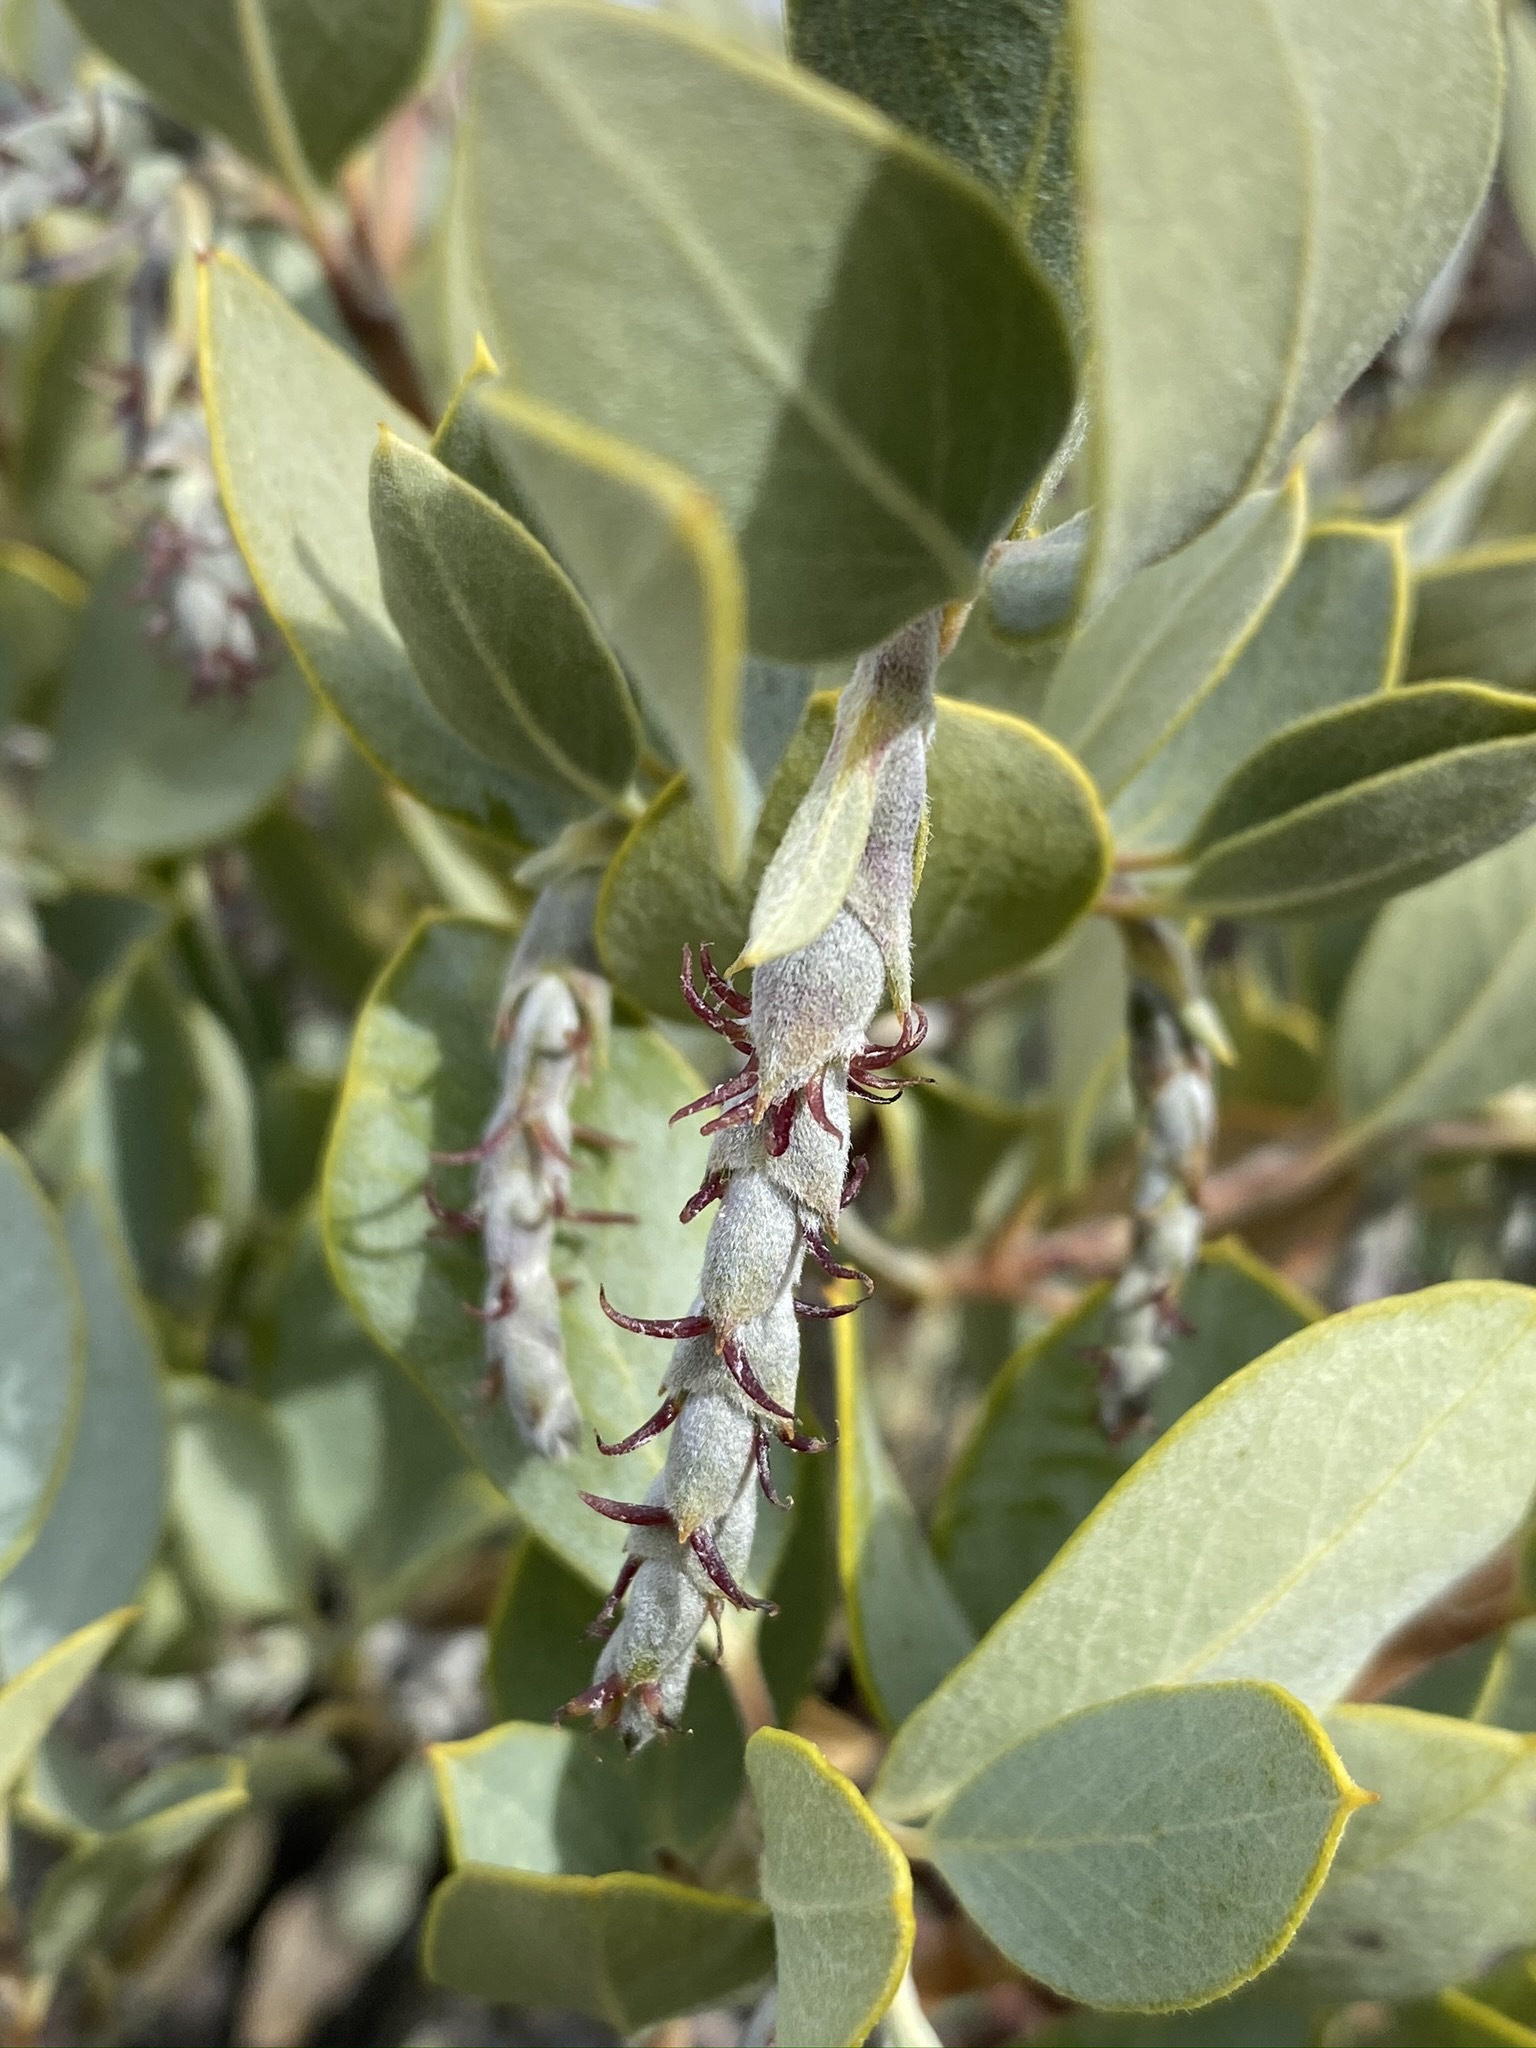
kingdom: Plantae
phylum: Tracheophyta
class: Magnoliopsida
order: Garryales
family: Garryaceae
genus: Garrya
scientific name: Garrya flavescens
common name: Ashy silk-tassel
